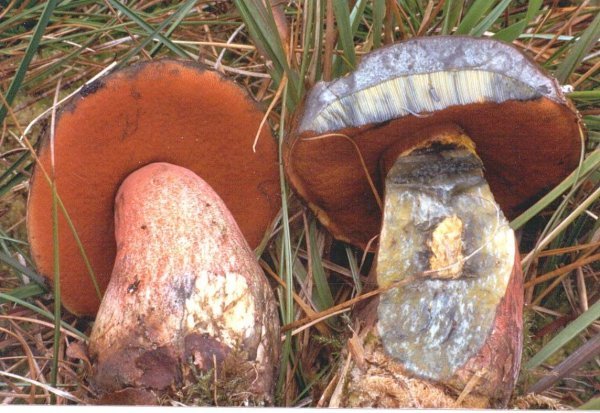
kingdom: Fungi
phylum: Basidiomycota
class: Agaricomycetes
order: Boletales
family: Boletaceae
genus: Neoboletus
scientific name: Neoboletus erythropus
